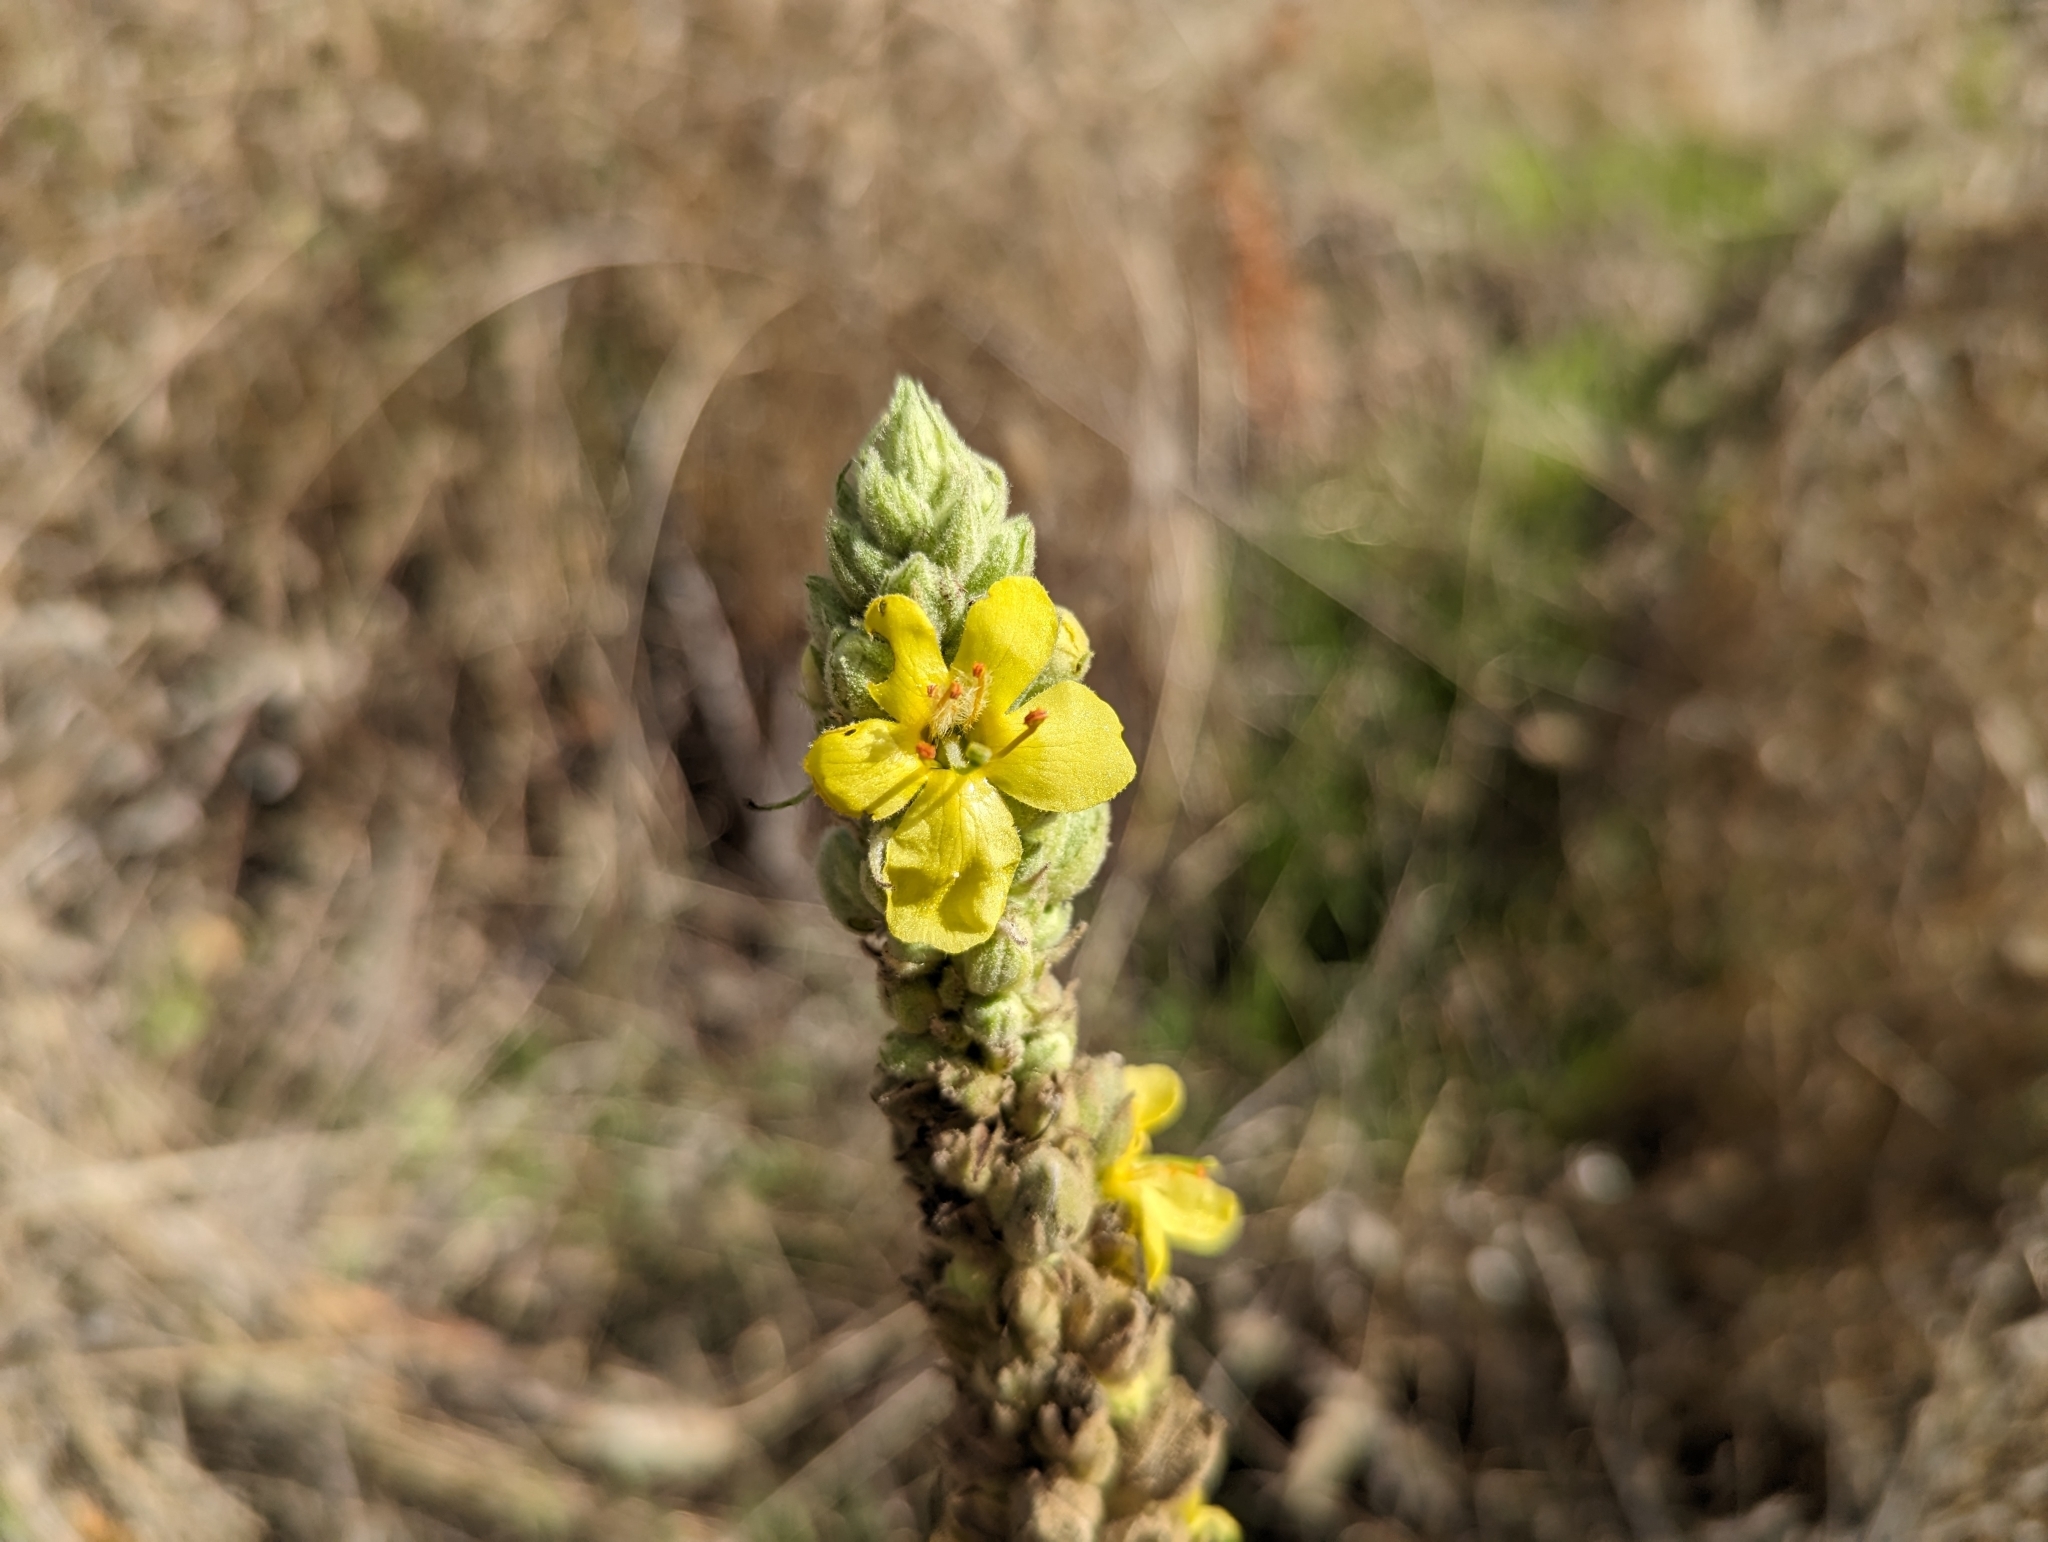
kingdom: Plantae
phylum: Tracheophyta
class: Magnoliopsida
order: Lamiales
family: Scrophulariaceae
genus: Verbascum
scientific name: Verbascum thapsus
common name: Common mullein
